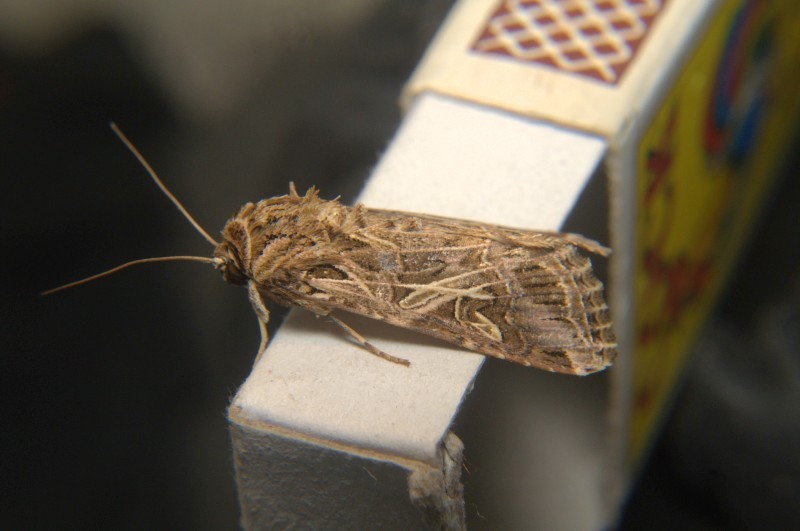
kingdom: Animalia
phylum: Arthropoda
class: Insecta
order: Lepidoptera
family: Noctuidae
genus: Spodoptera
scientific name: Spodoptera litura
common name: Asian cotton leafworm
